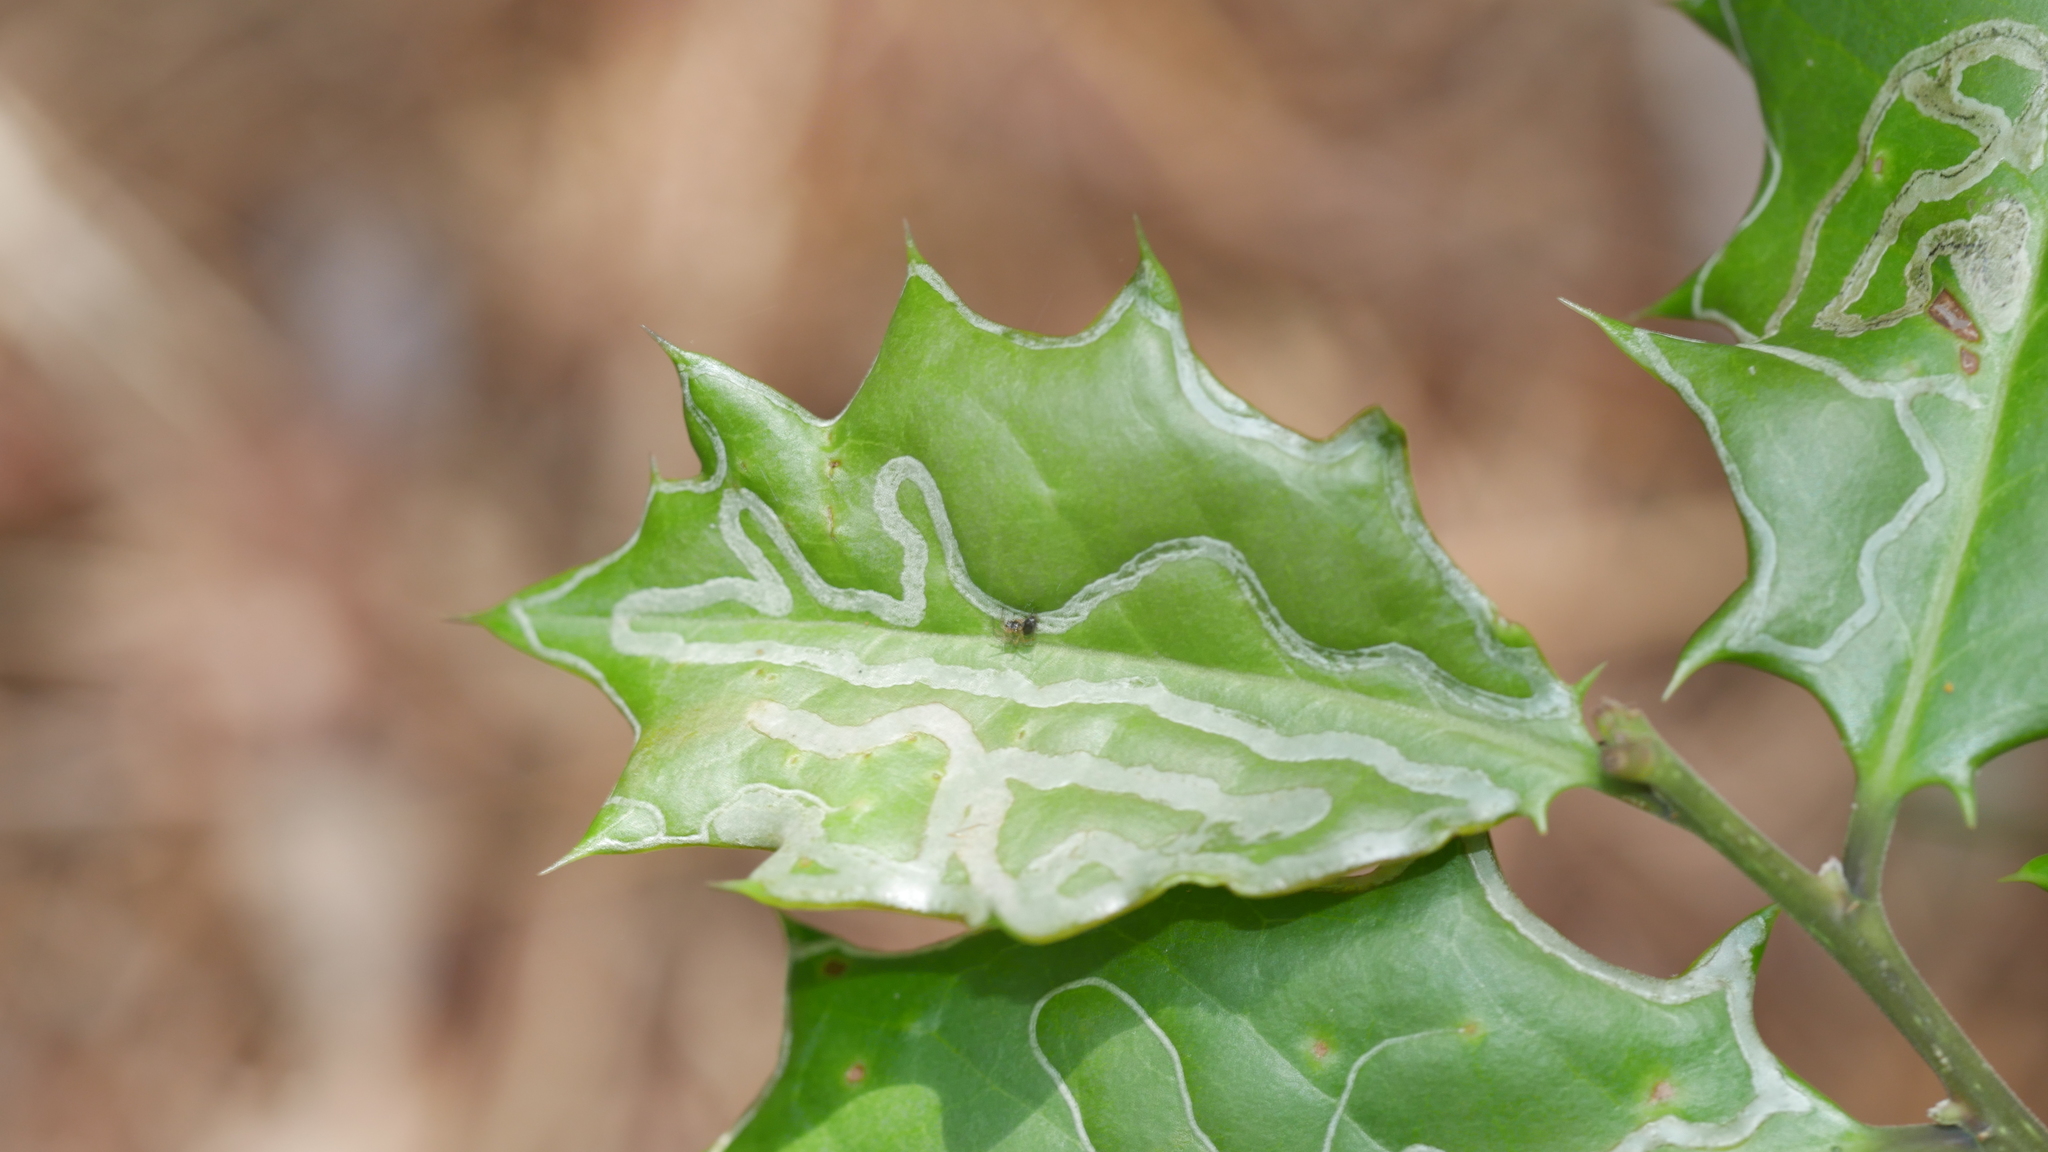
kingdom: Animalia
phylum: Arthropoda
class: Insecta
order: Diptera
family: Agromyzidae
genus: Phytomyza
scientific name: Phytomyza opacae
